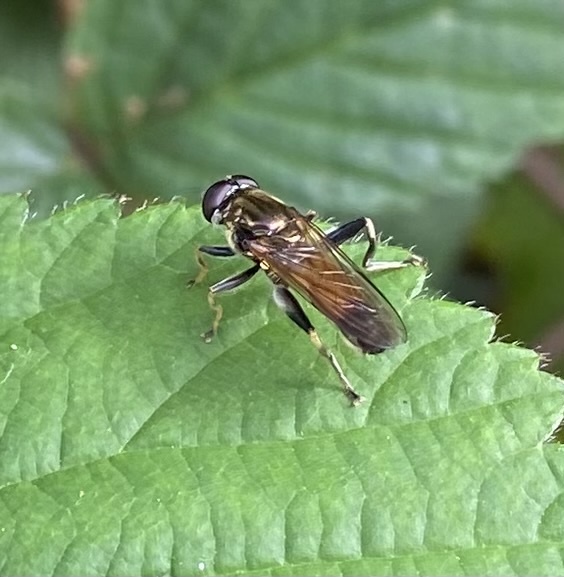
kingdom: Animalia
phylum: Arthropoda
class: Insecta
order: Diptera
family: Syrphidae
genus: Xylota
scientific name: Xylota segnis
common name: Brown-toed forest fly
